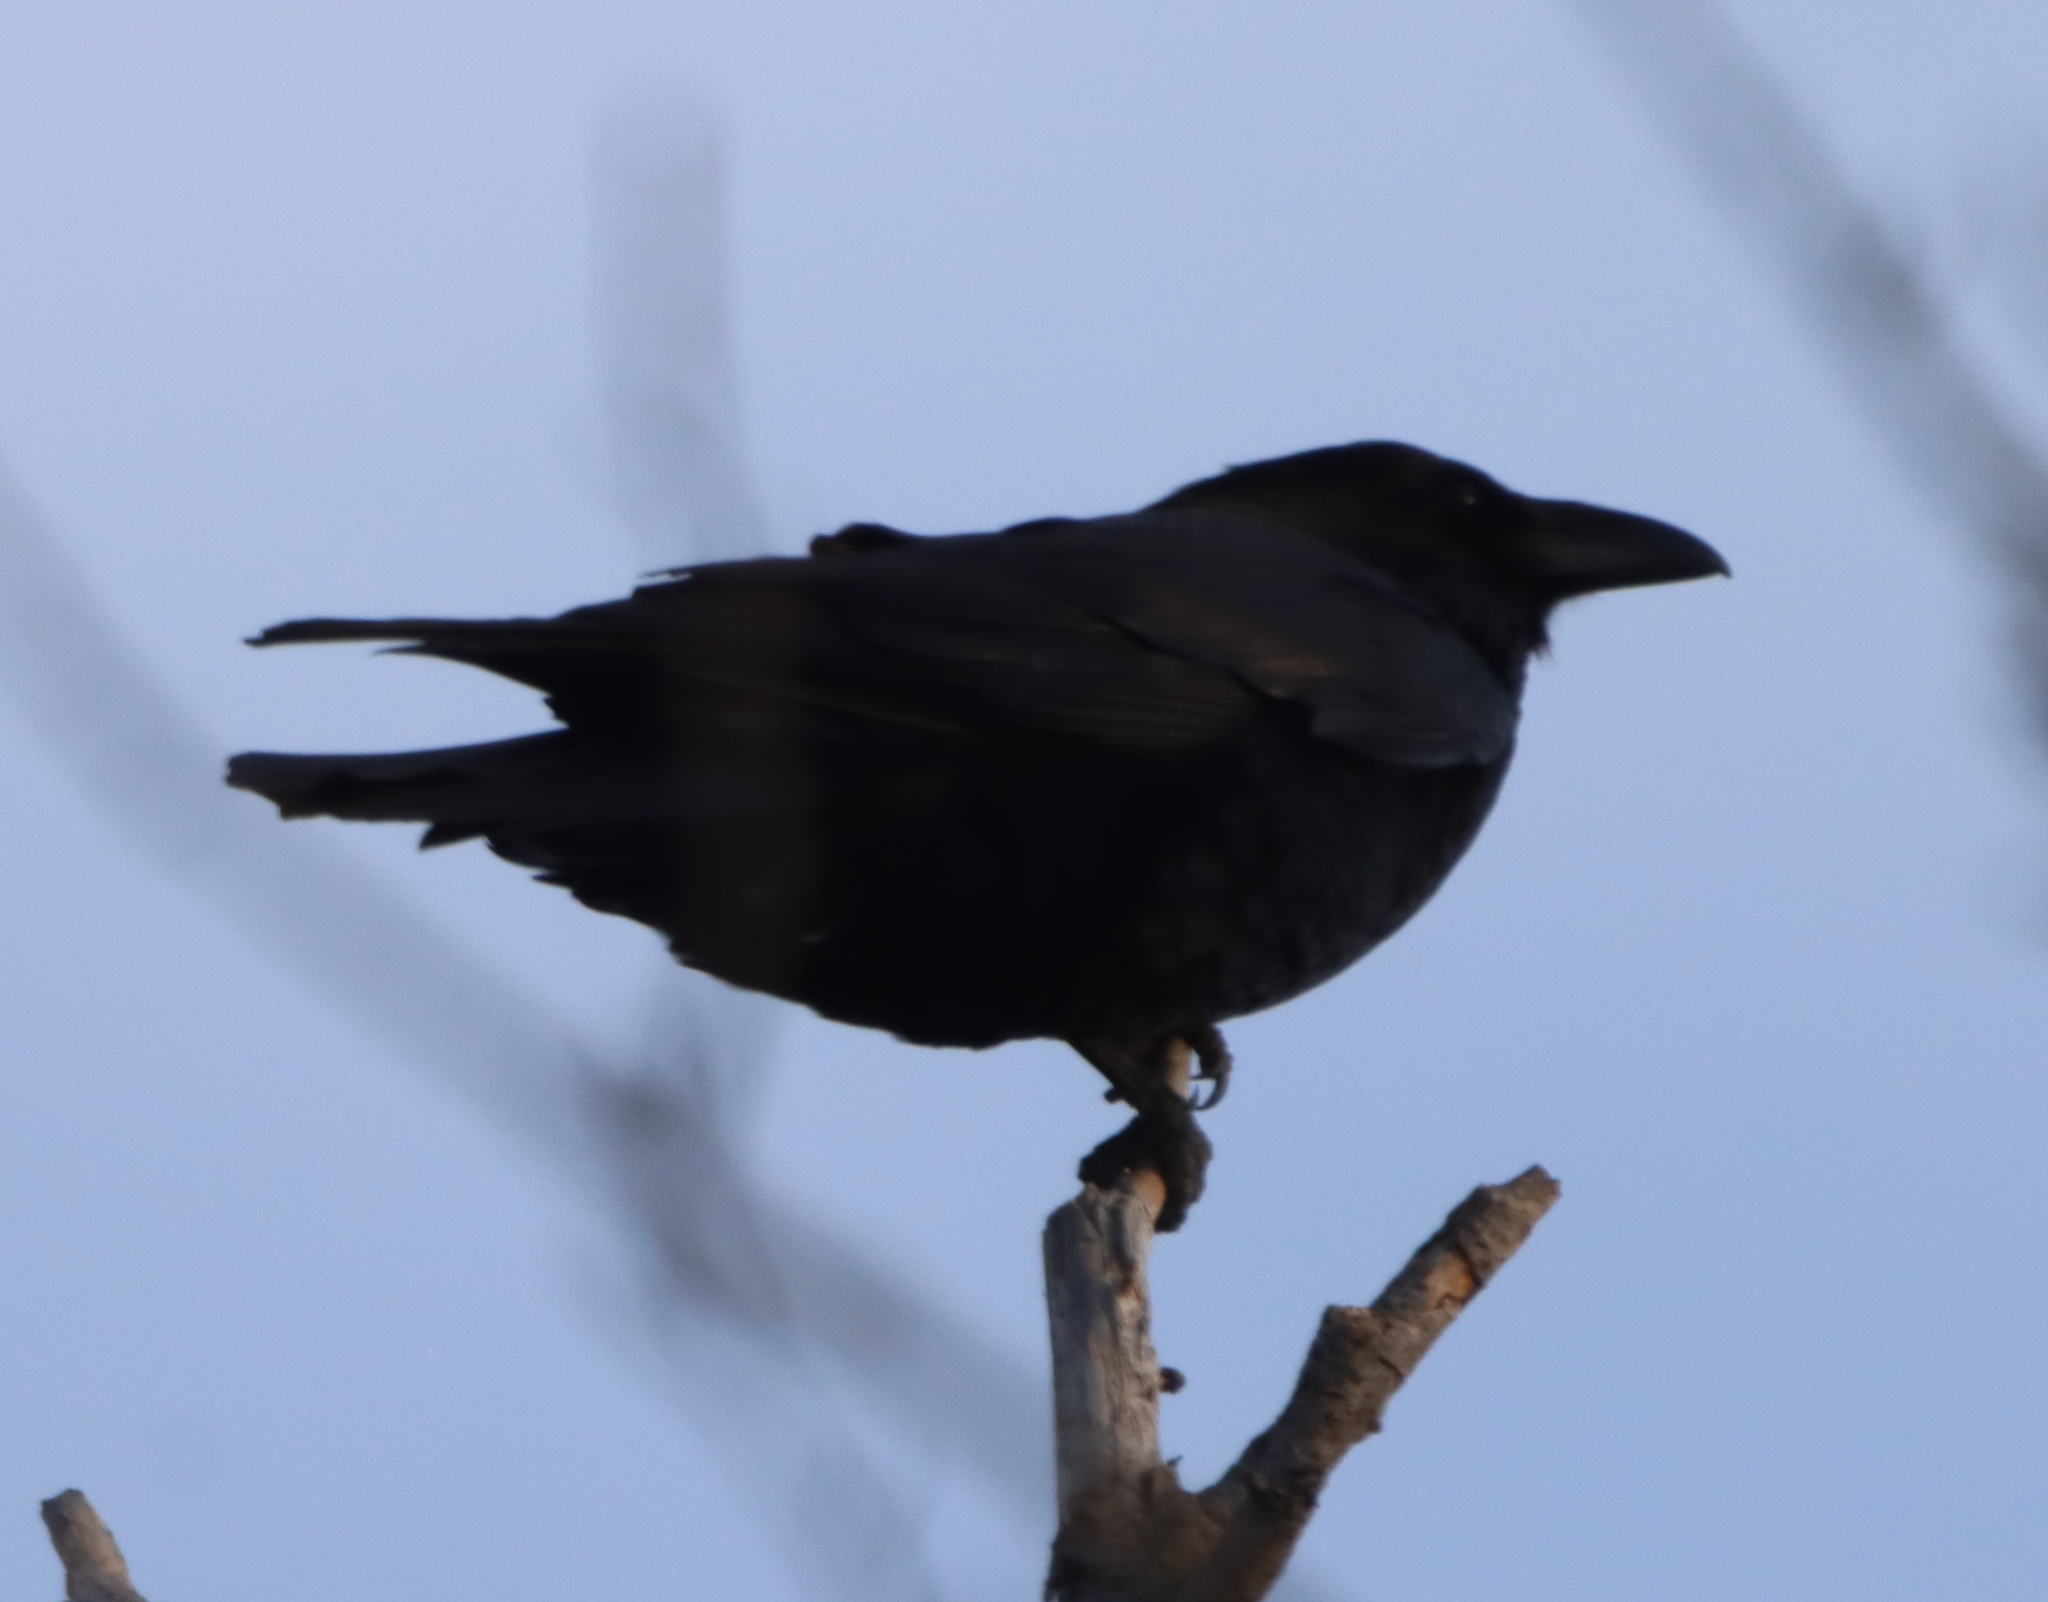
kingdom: Animalia
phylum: Chordata
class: Aves
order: Passeriformes
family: Corvidae
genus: Corvus
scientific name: Corvus corax
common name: Common raven
